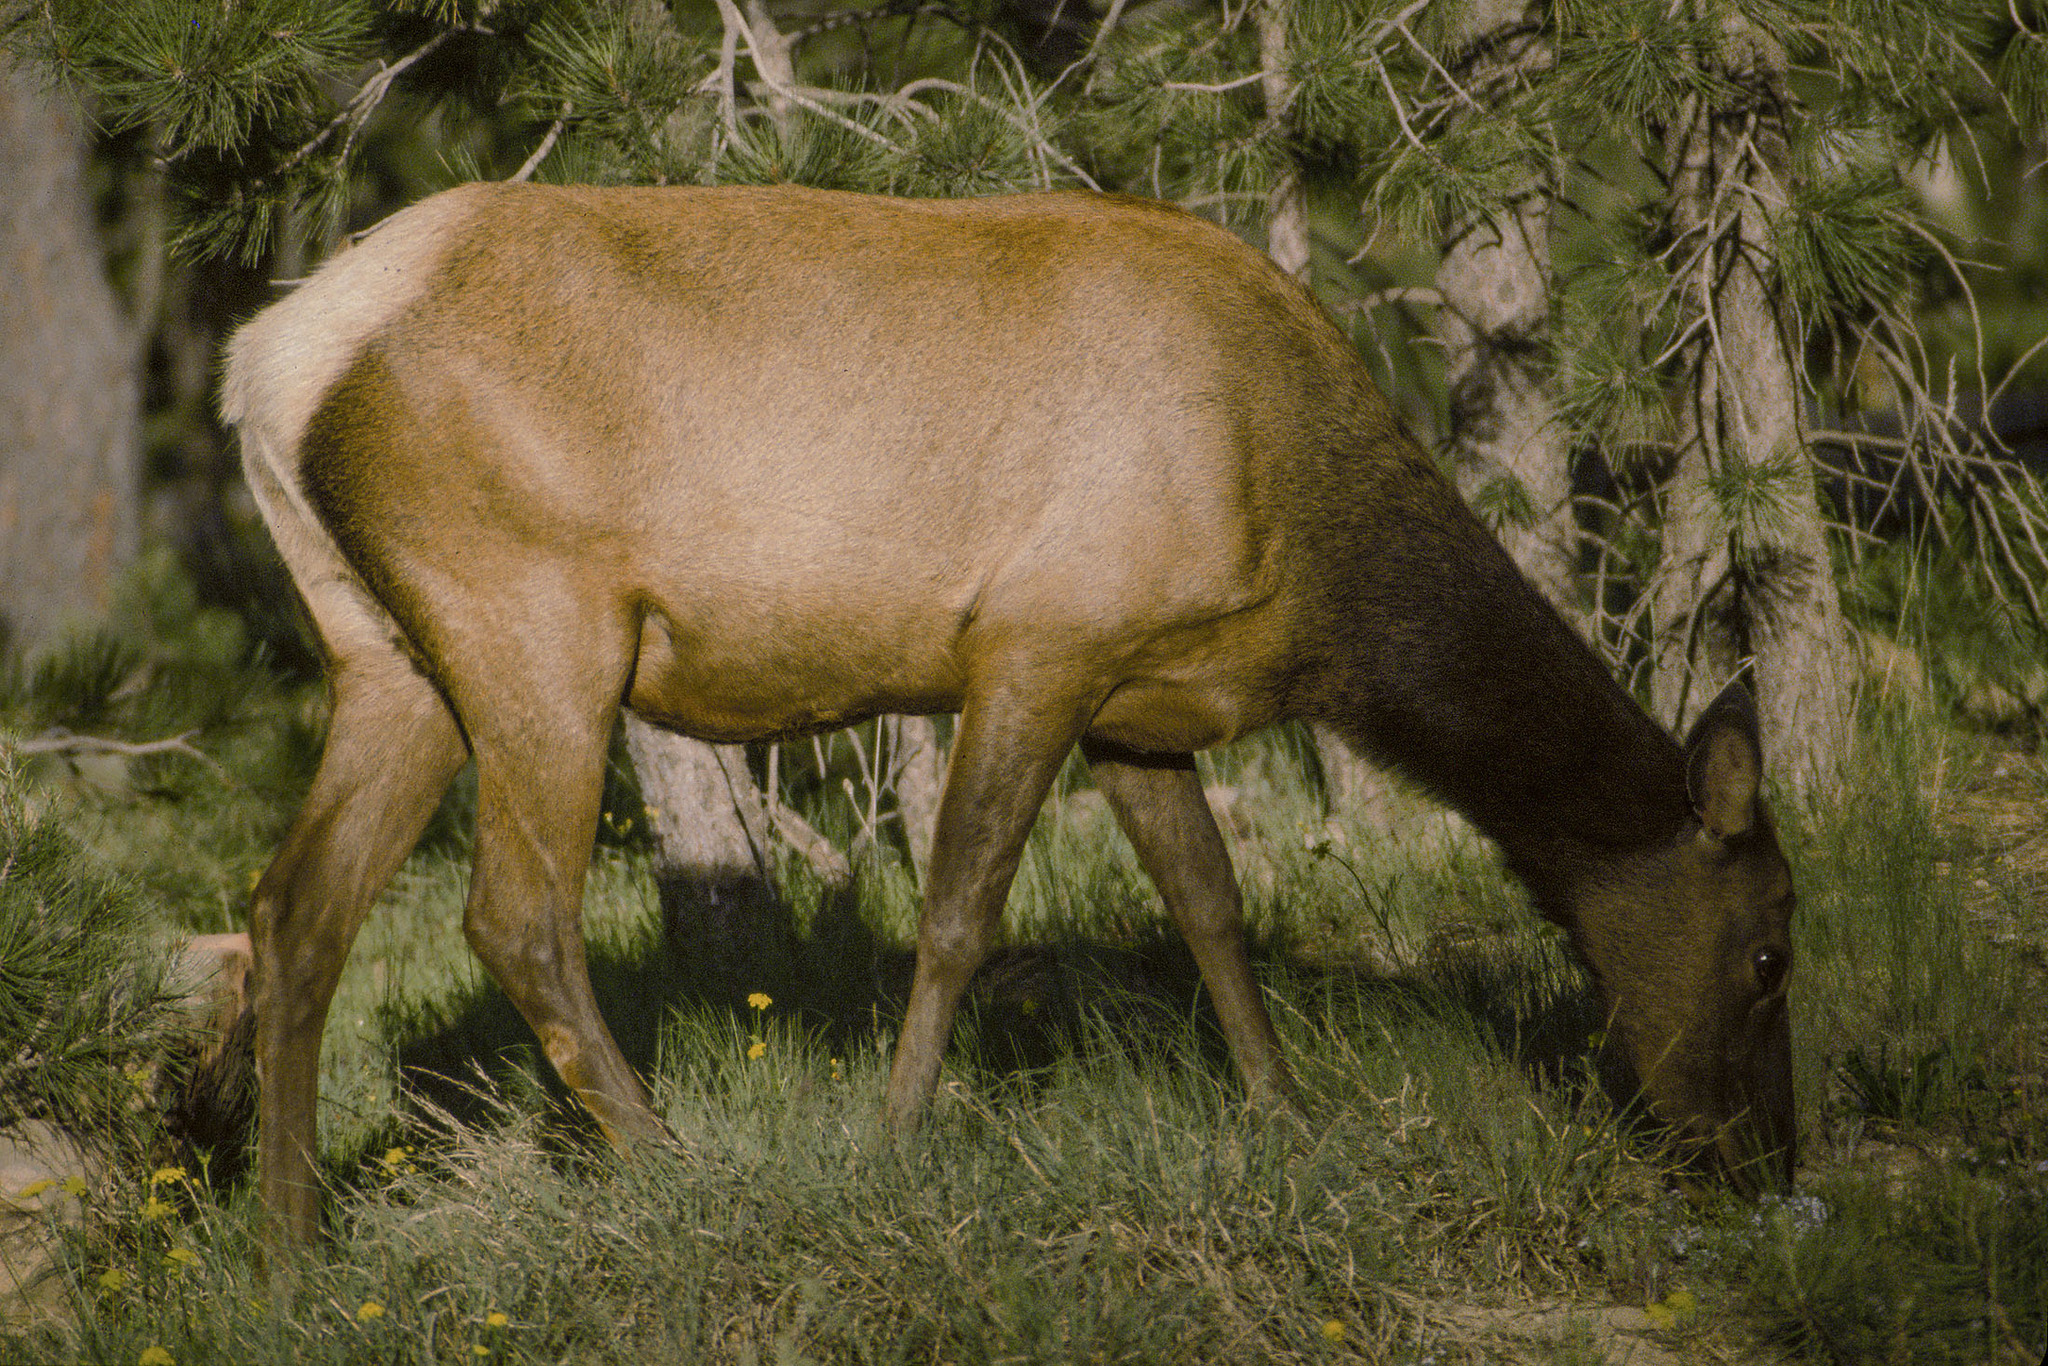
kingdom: Animalia
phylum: Chordata
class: Mammalia
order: Artiodactyla
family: Cervidae
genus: Cervus
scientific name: Cervus elaphus
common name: Red deer
